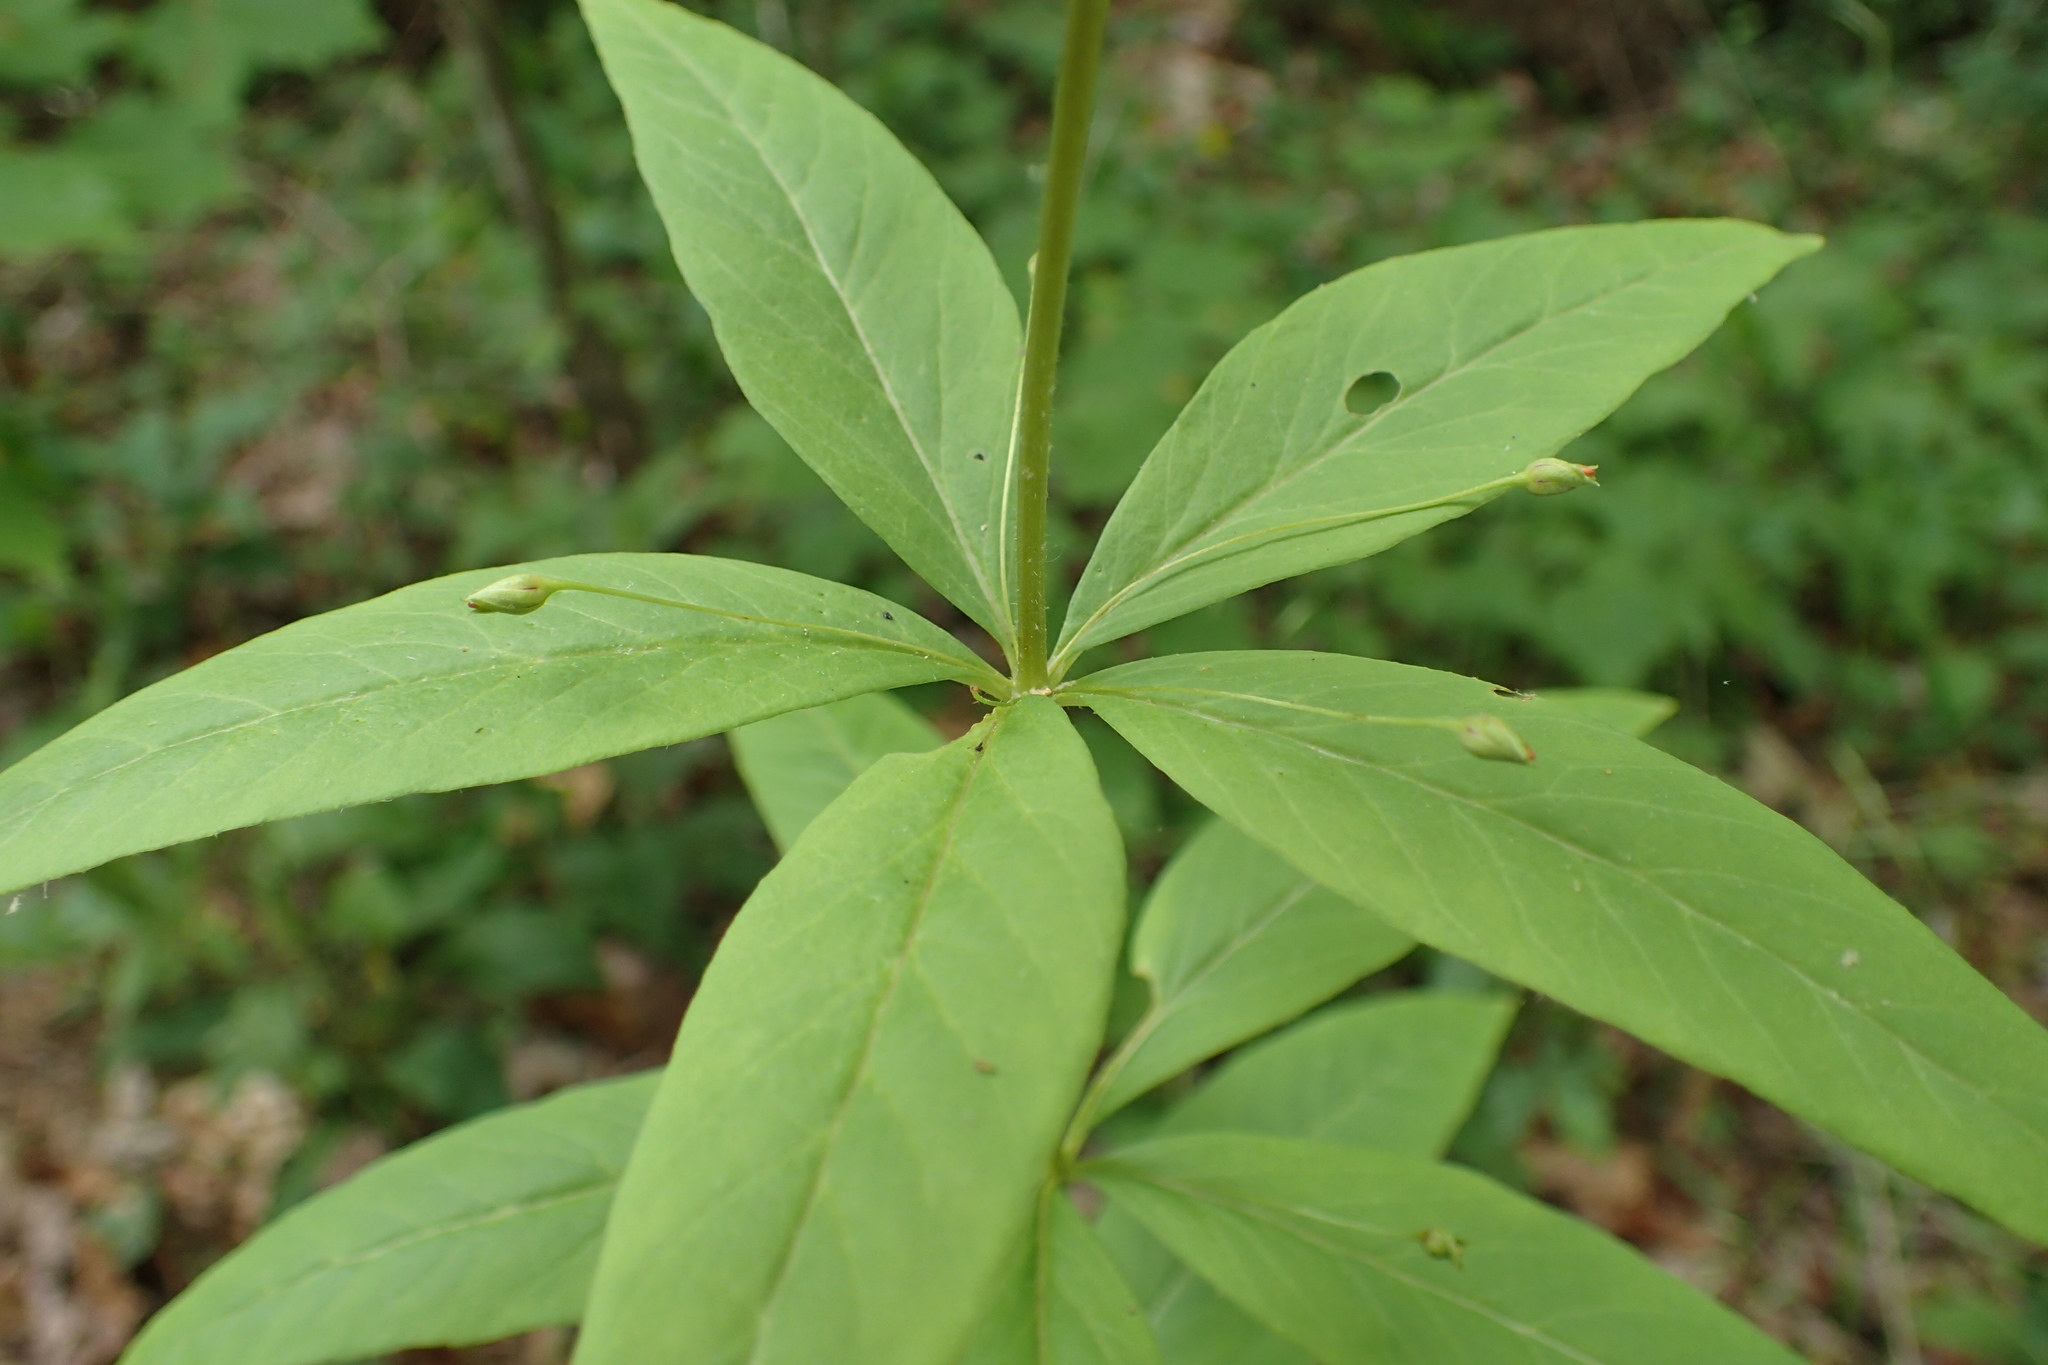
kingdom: Plantae
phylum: Tracheophyta
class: Magnoliopsida
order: Ericales
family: Primulaceae
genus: Lysimachia
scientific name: Lysimachia quadrifolia
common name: Whorled loosestrife
